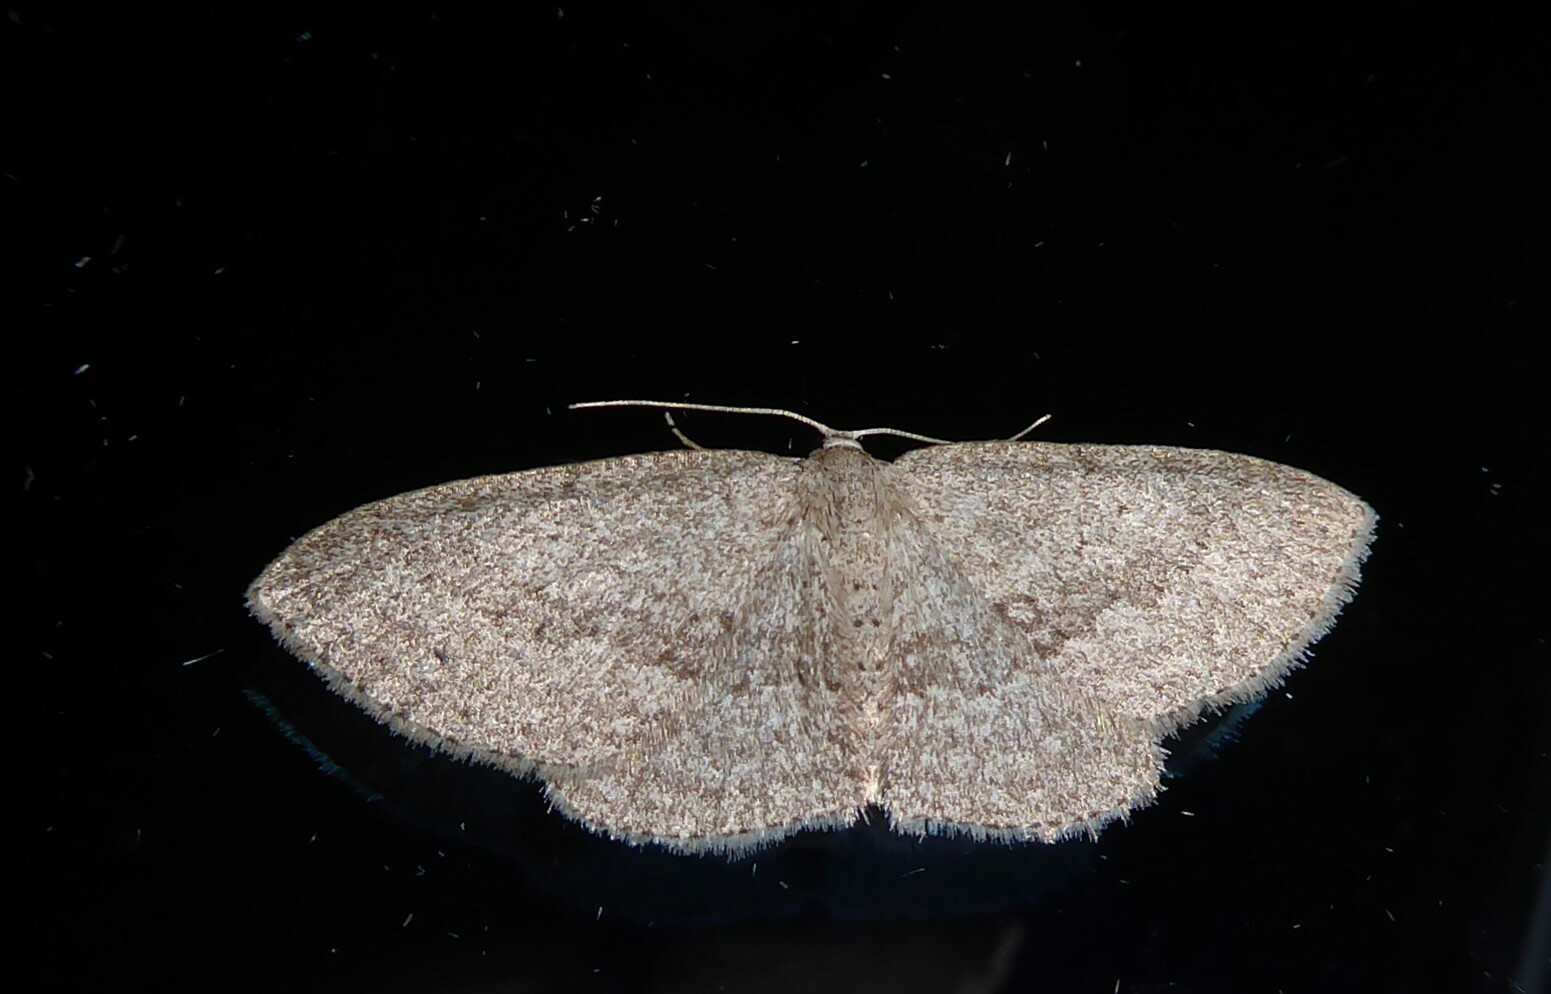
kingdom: Animalia
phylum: Arthropoda
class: Insecta
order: Lepidoptera
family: Geometridae
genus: Poecilasthena
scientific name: Poecilasthena schistaria
